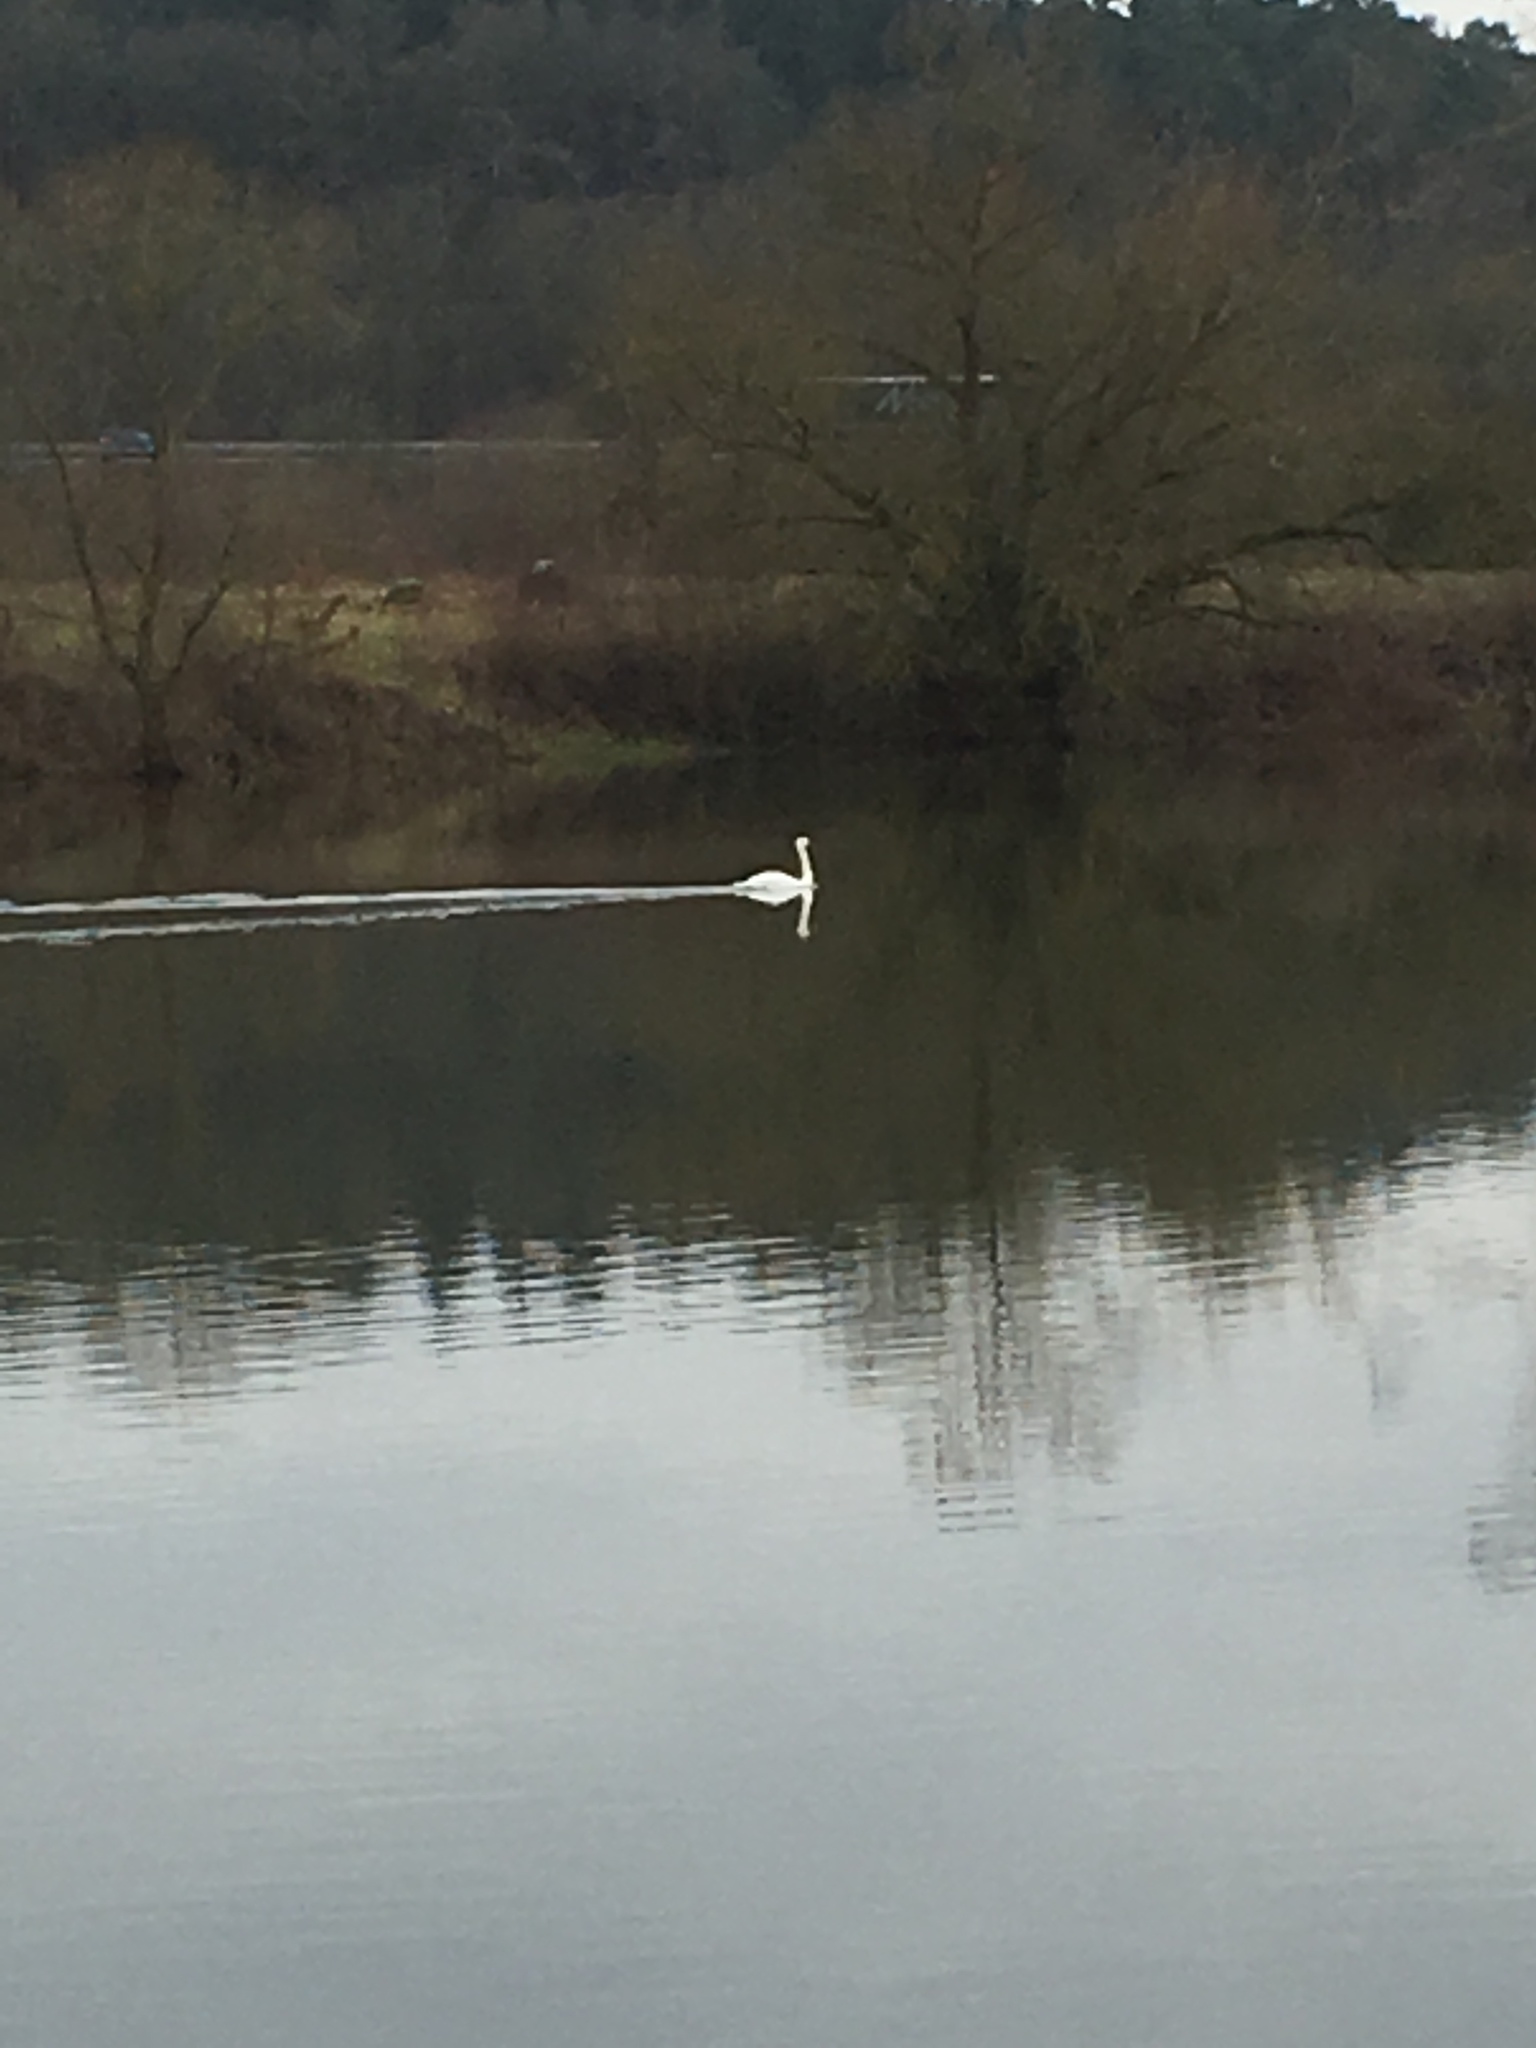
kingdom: Animalia
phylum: Chordata
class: Aves
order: Anseriformes
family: Anatidae
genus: Cygnus
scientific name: Cygnus olor
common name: Mute swan
